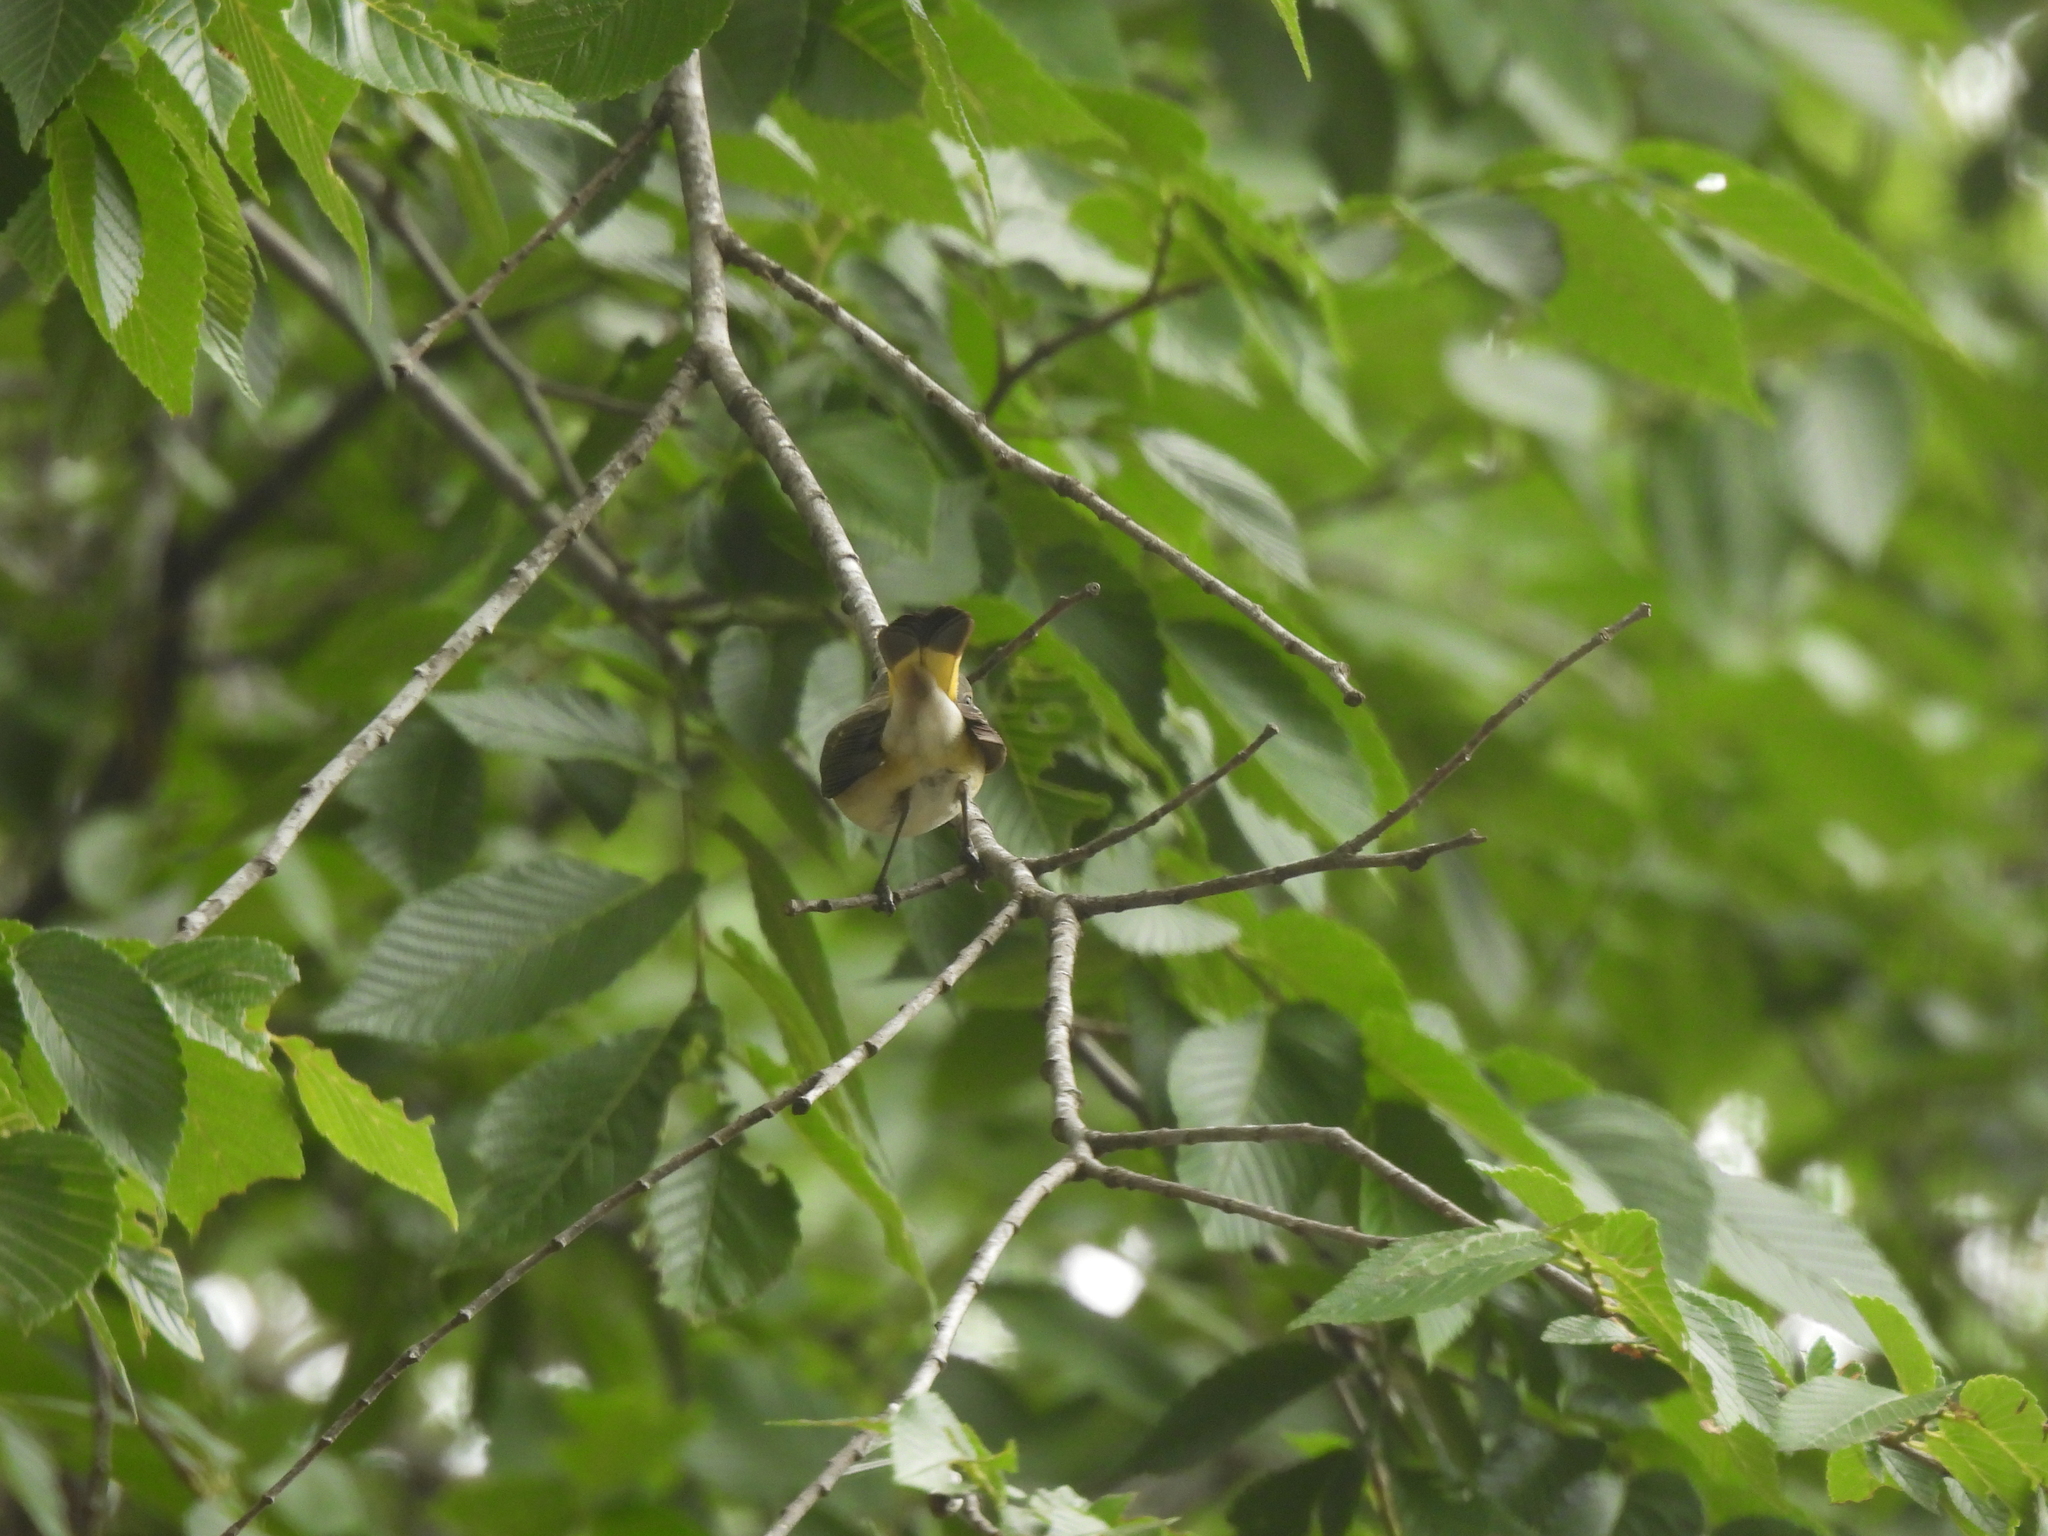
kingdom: Animalia
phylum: Chordata
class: Aves
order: Passeriformes
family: Parulidae
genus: Setophaga
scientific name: Setophaga ruticilla
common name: American redstart
